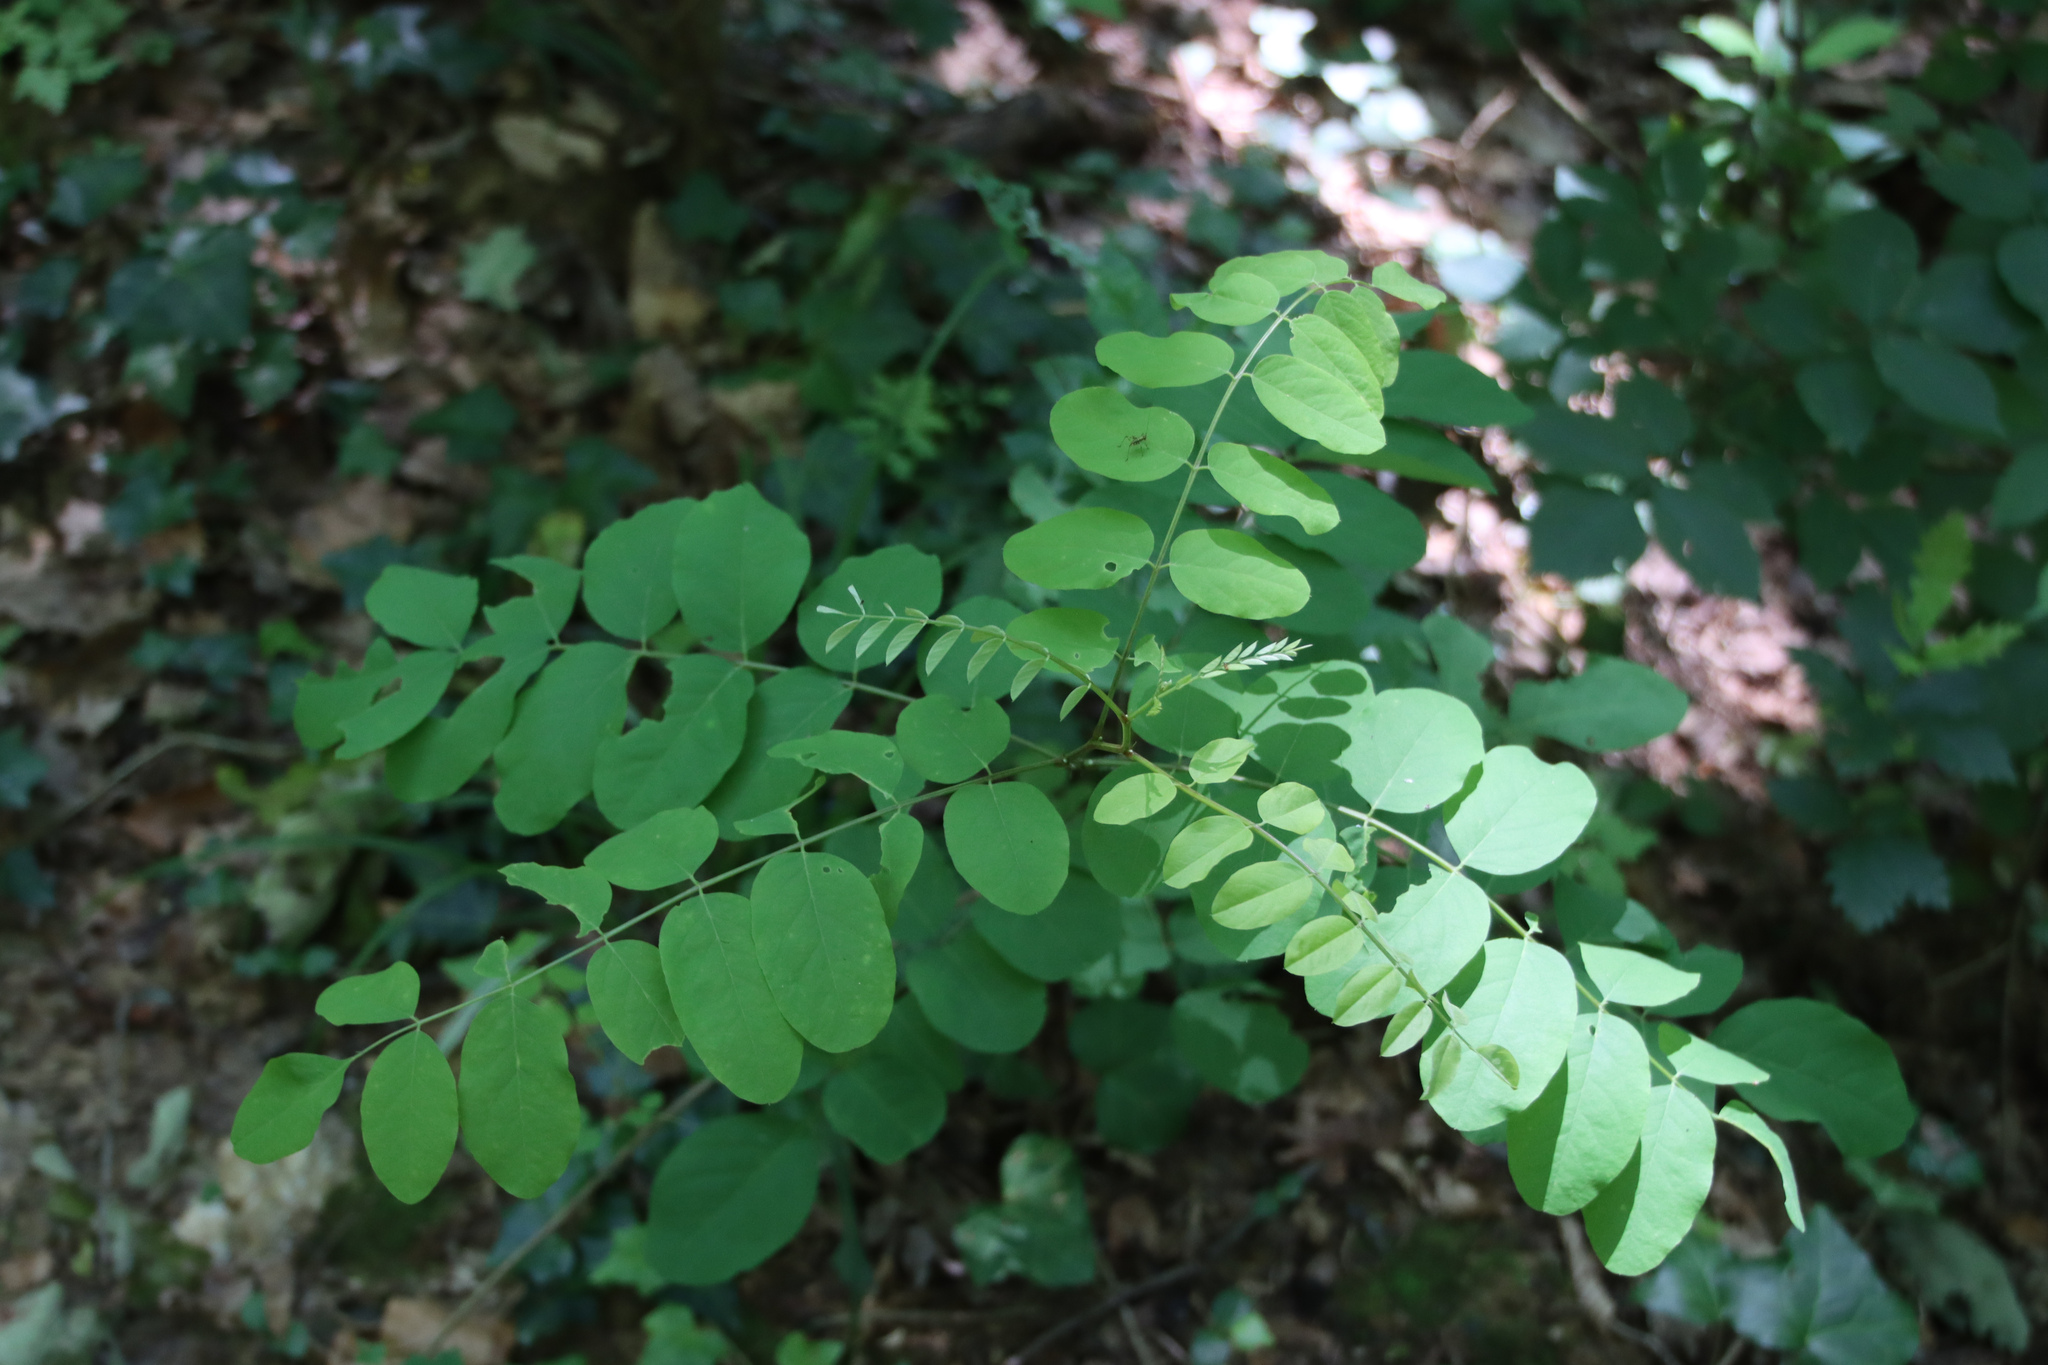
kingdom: Plantae
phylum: Tracheophyta
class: Magnoliopsida
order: Fabales
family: Fabaceae
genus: Robinia
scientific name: Robinia pseudoacacia
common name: Black locust
